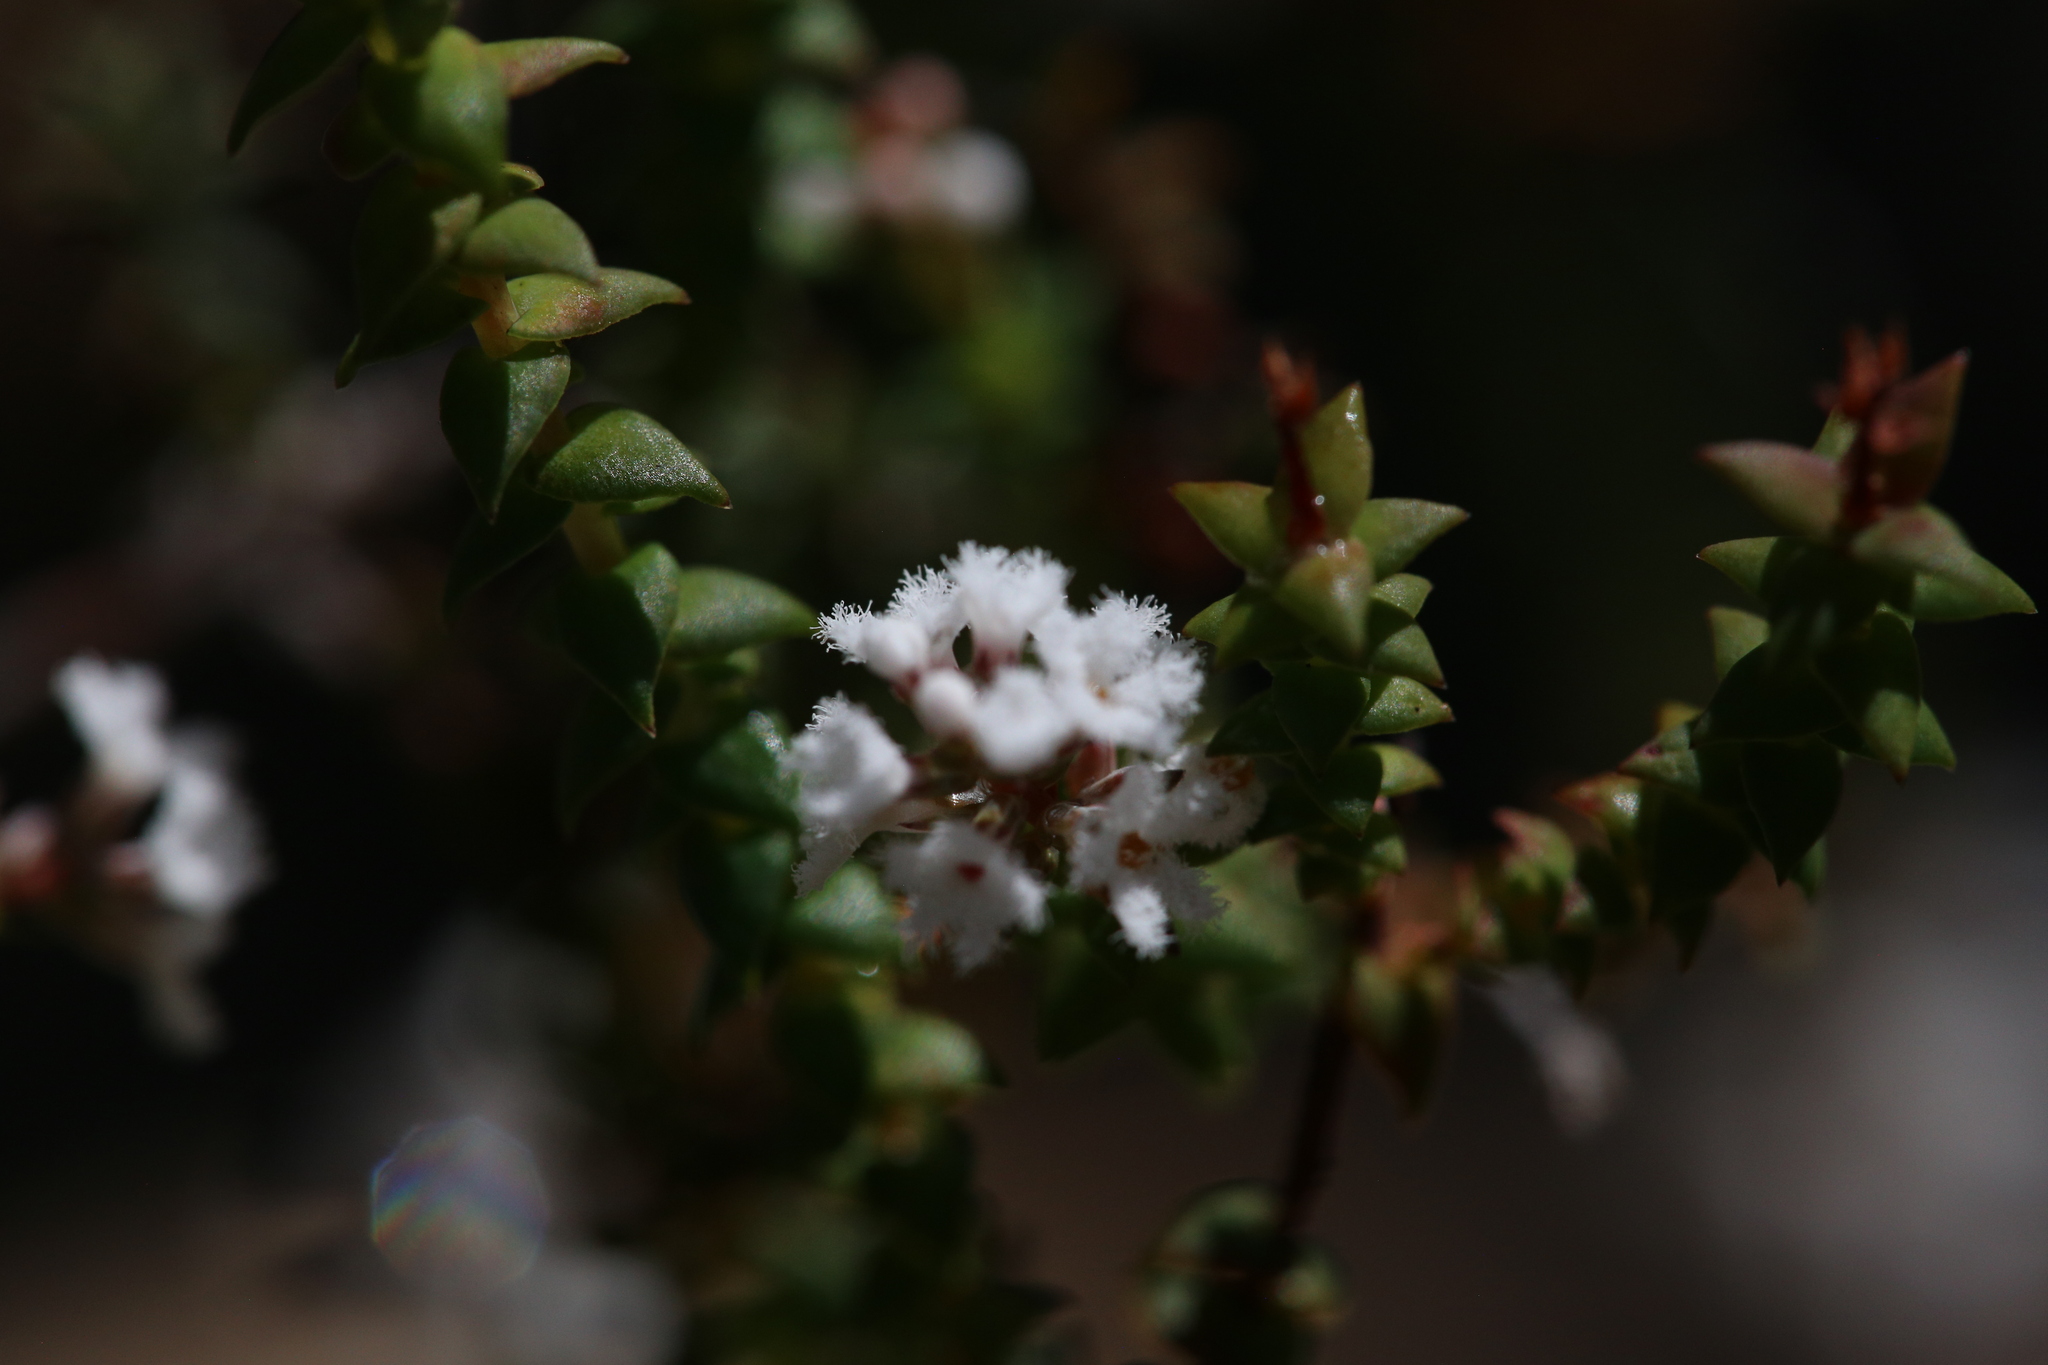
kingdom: Plantae
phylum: Tracheophyta
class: Magnoliopsida
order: Ericales
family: Ericaceae
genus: Leucopogon
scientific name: Leucopogon glabellus
